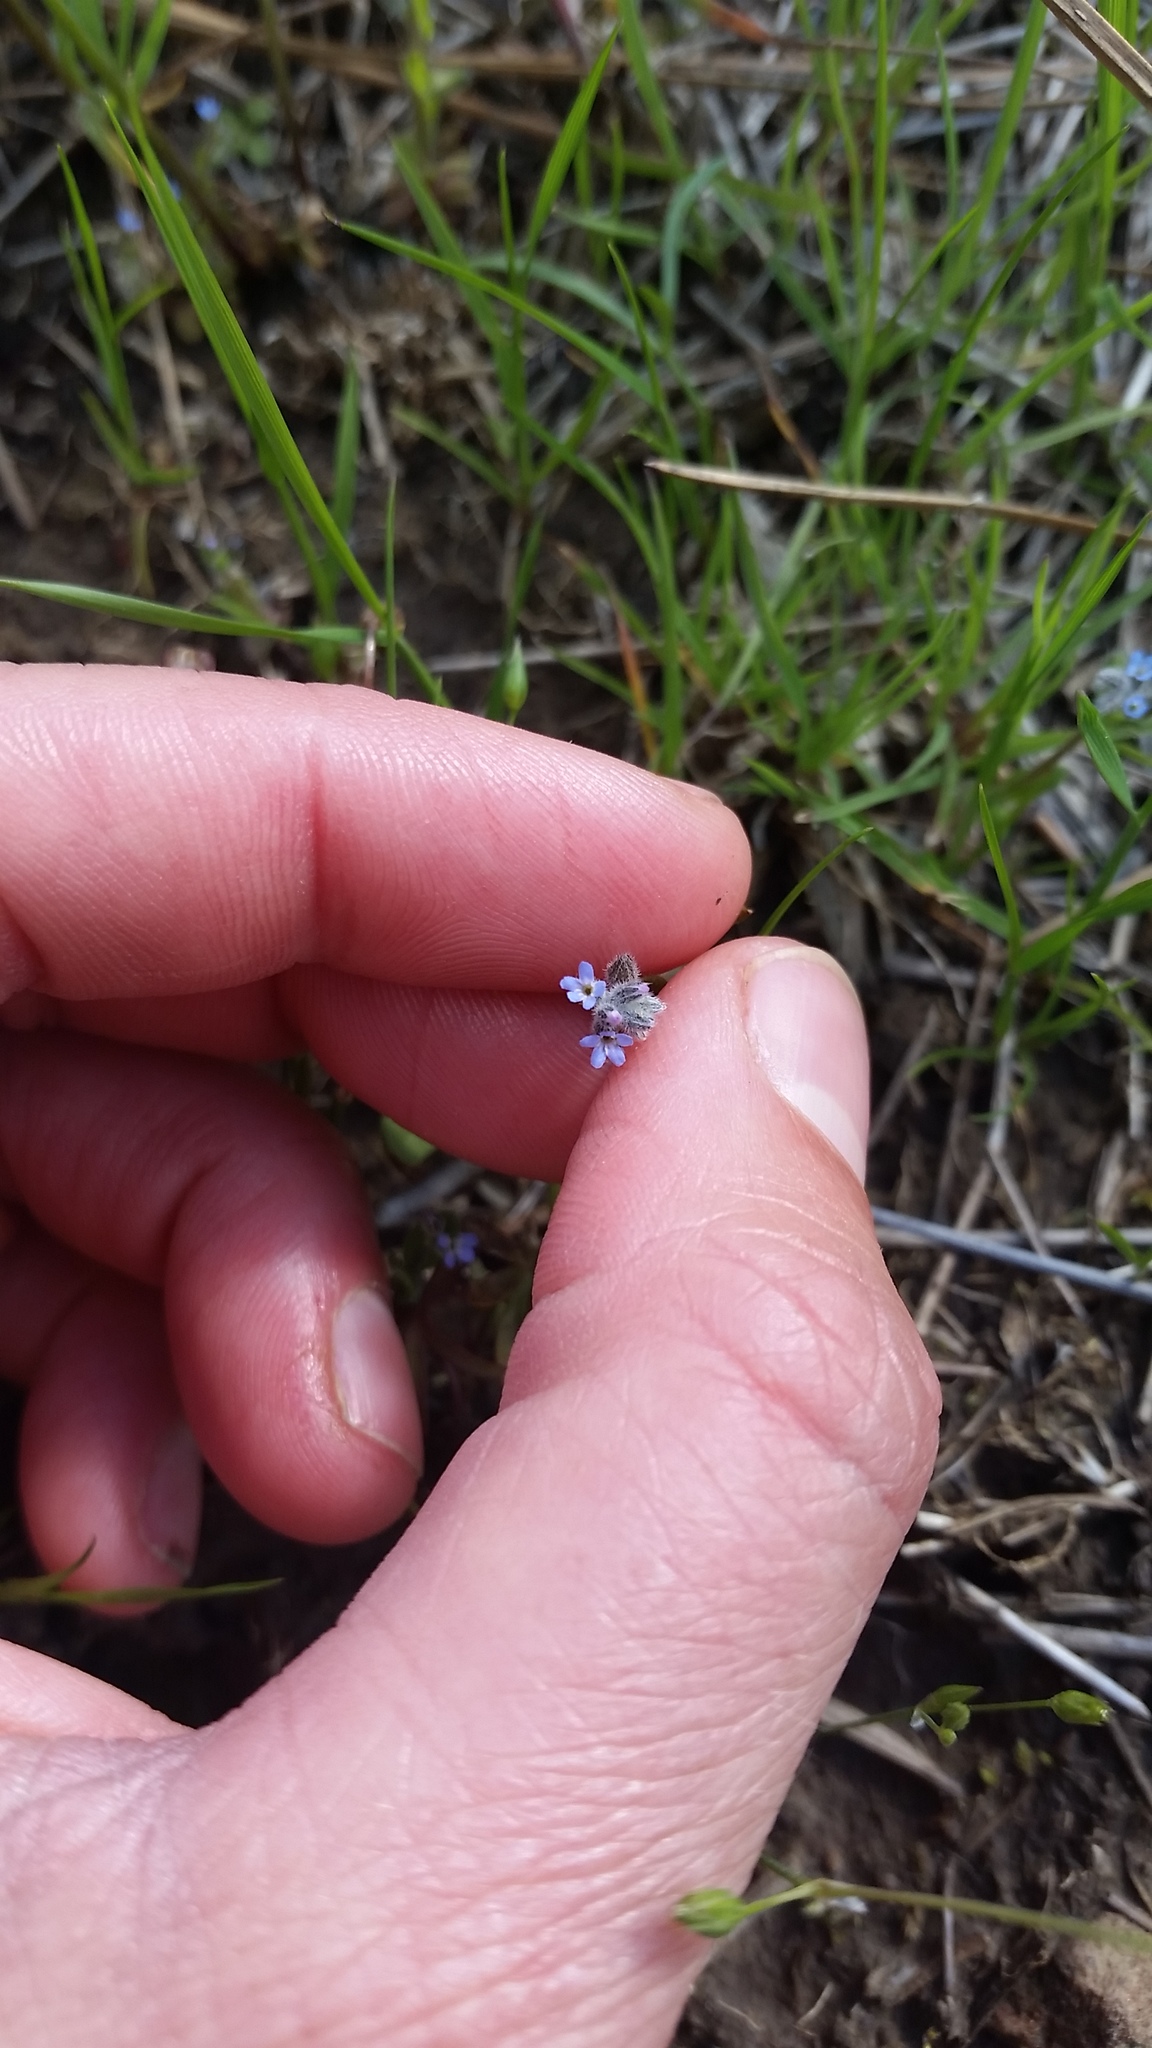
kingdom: Plantae
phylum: Tracheophyta
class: Magnoliopsida
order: Boraginales
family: Boraginaceae
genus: Myosotis
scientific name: Myosotis stricta
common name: Strict forget-me-not
